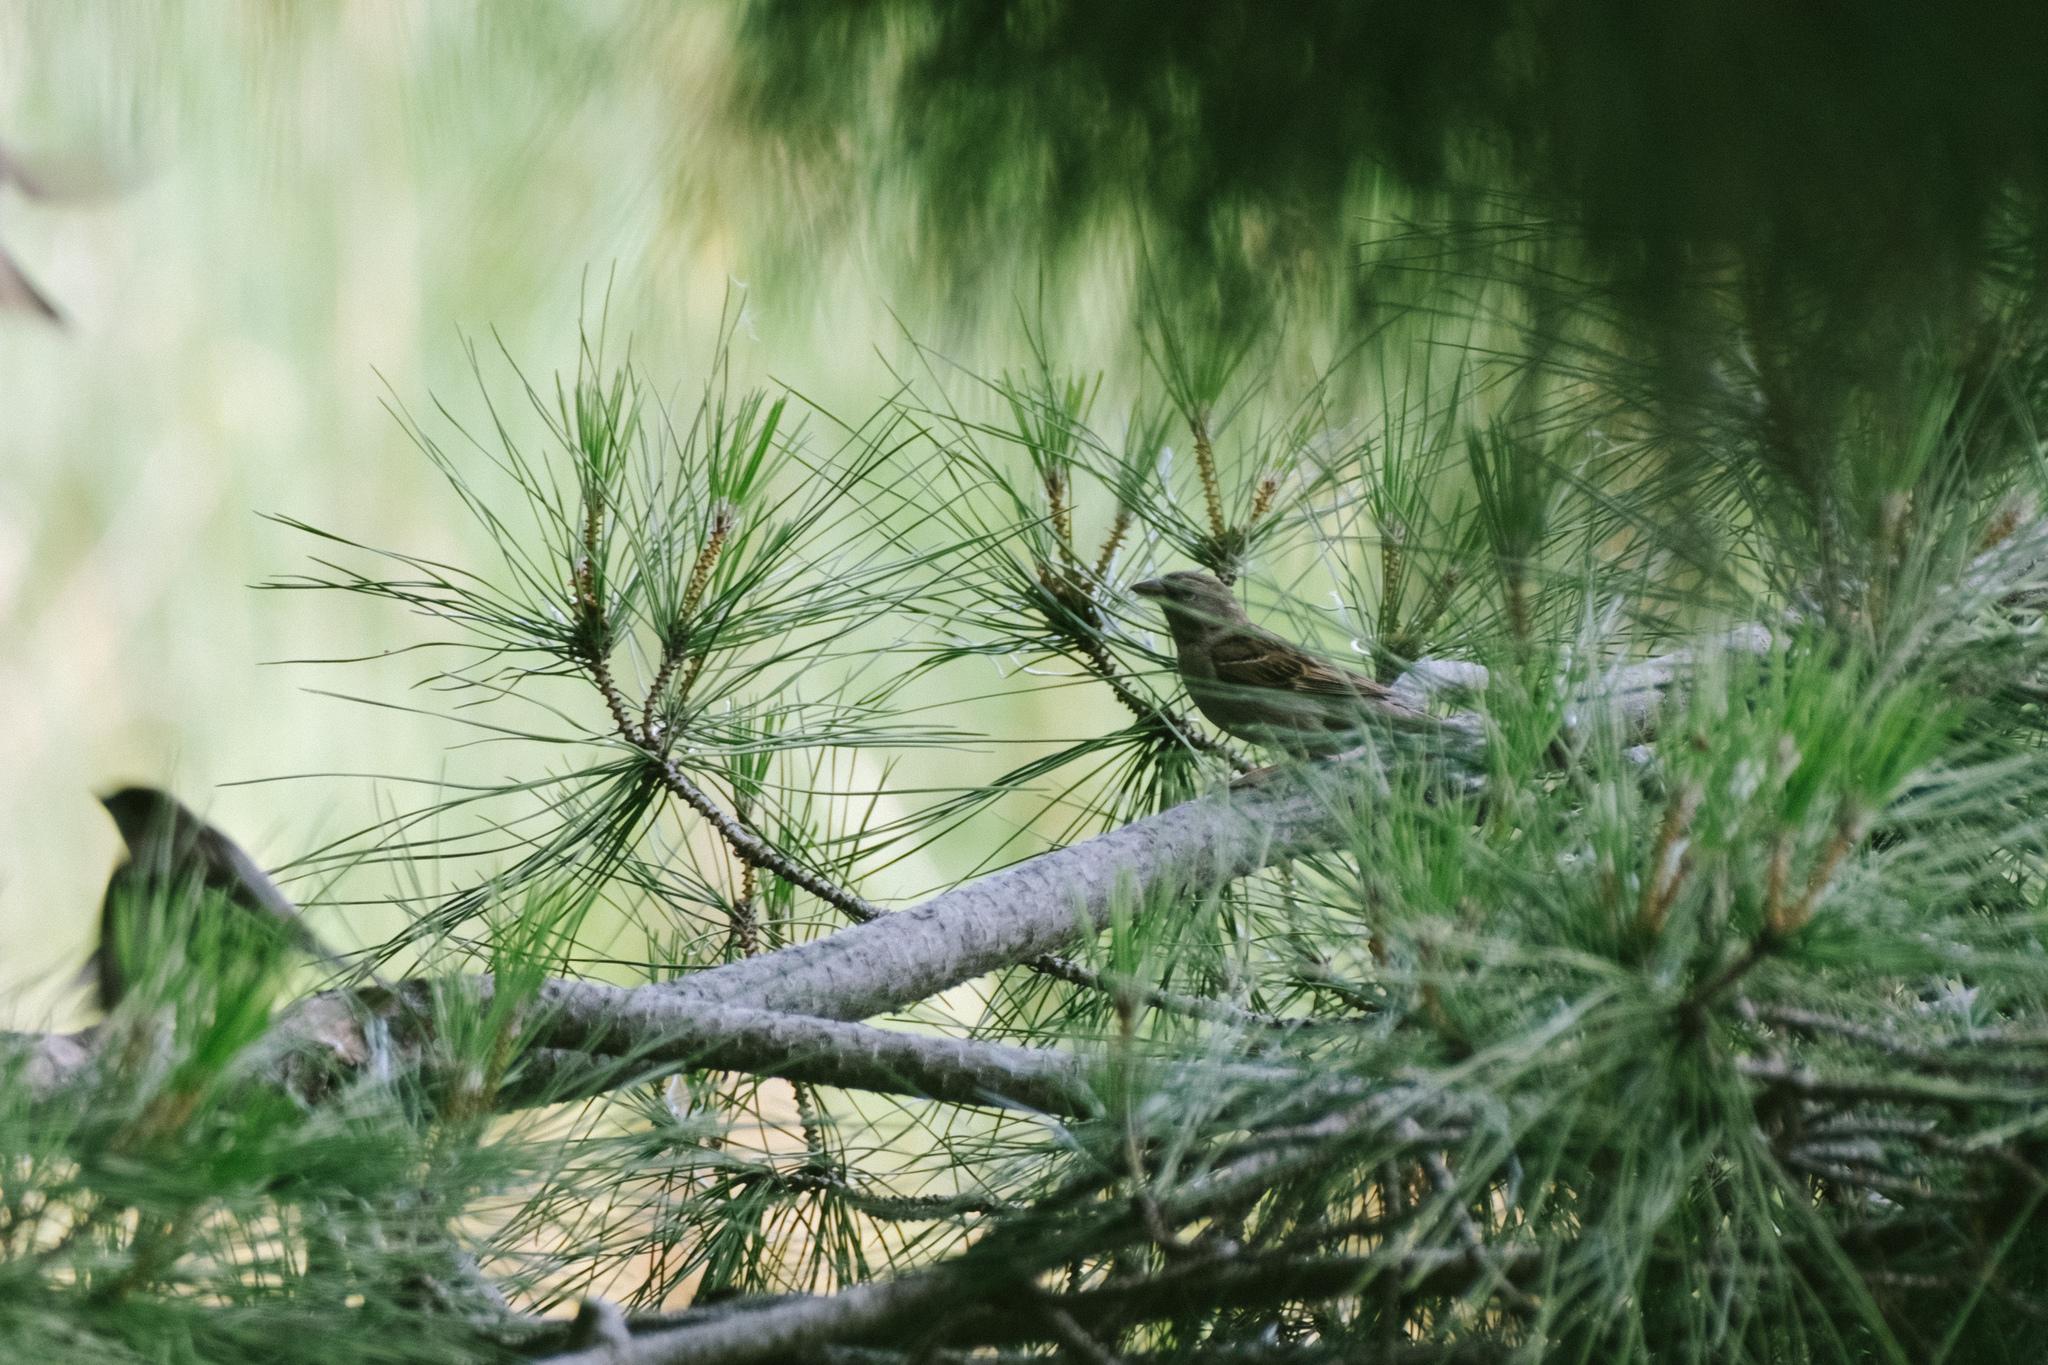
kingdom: Animalia
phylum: Chordata
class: Aves
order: Passeriformes
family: Passeridae
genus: Passer
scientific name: Passer domesticus
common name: House sparrow
